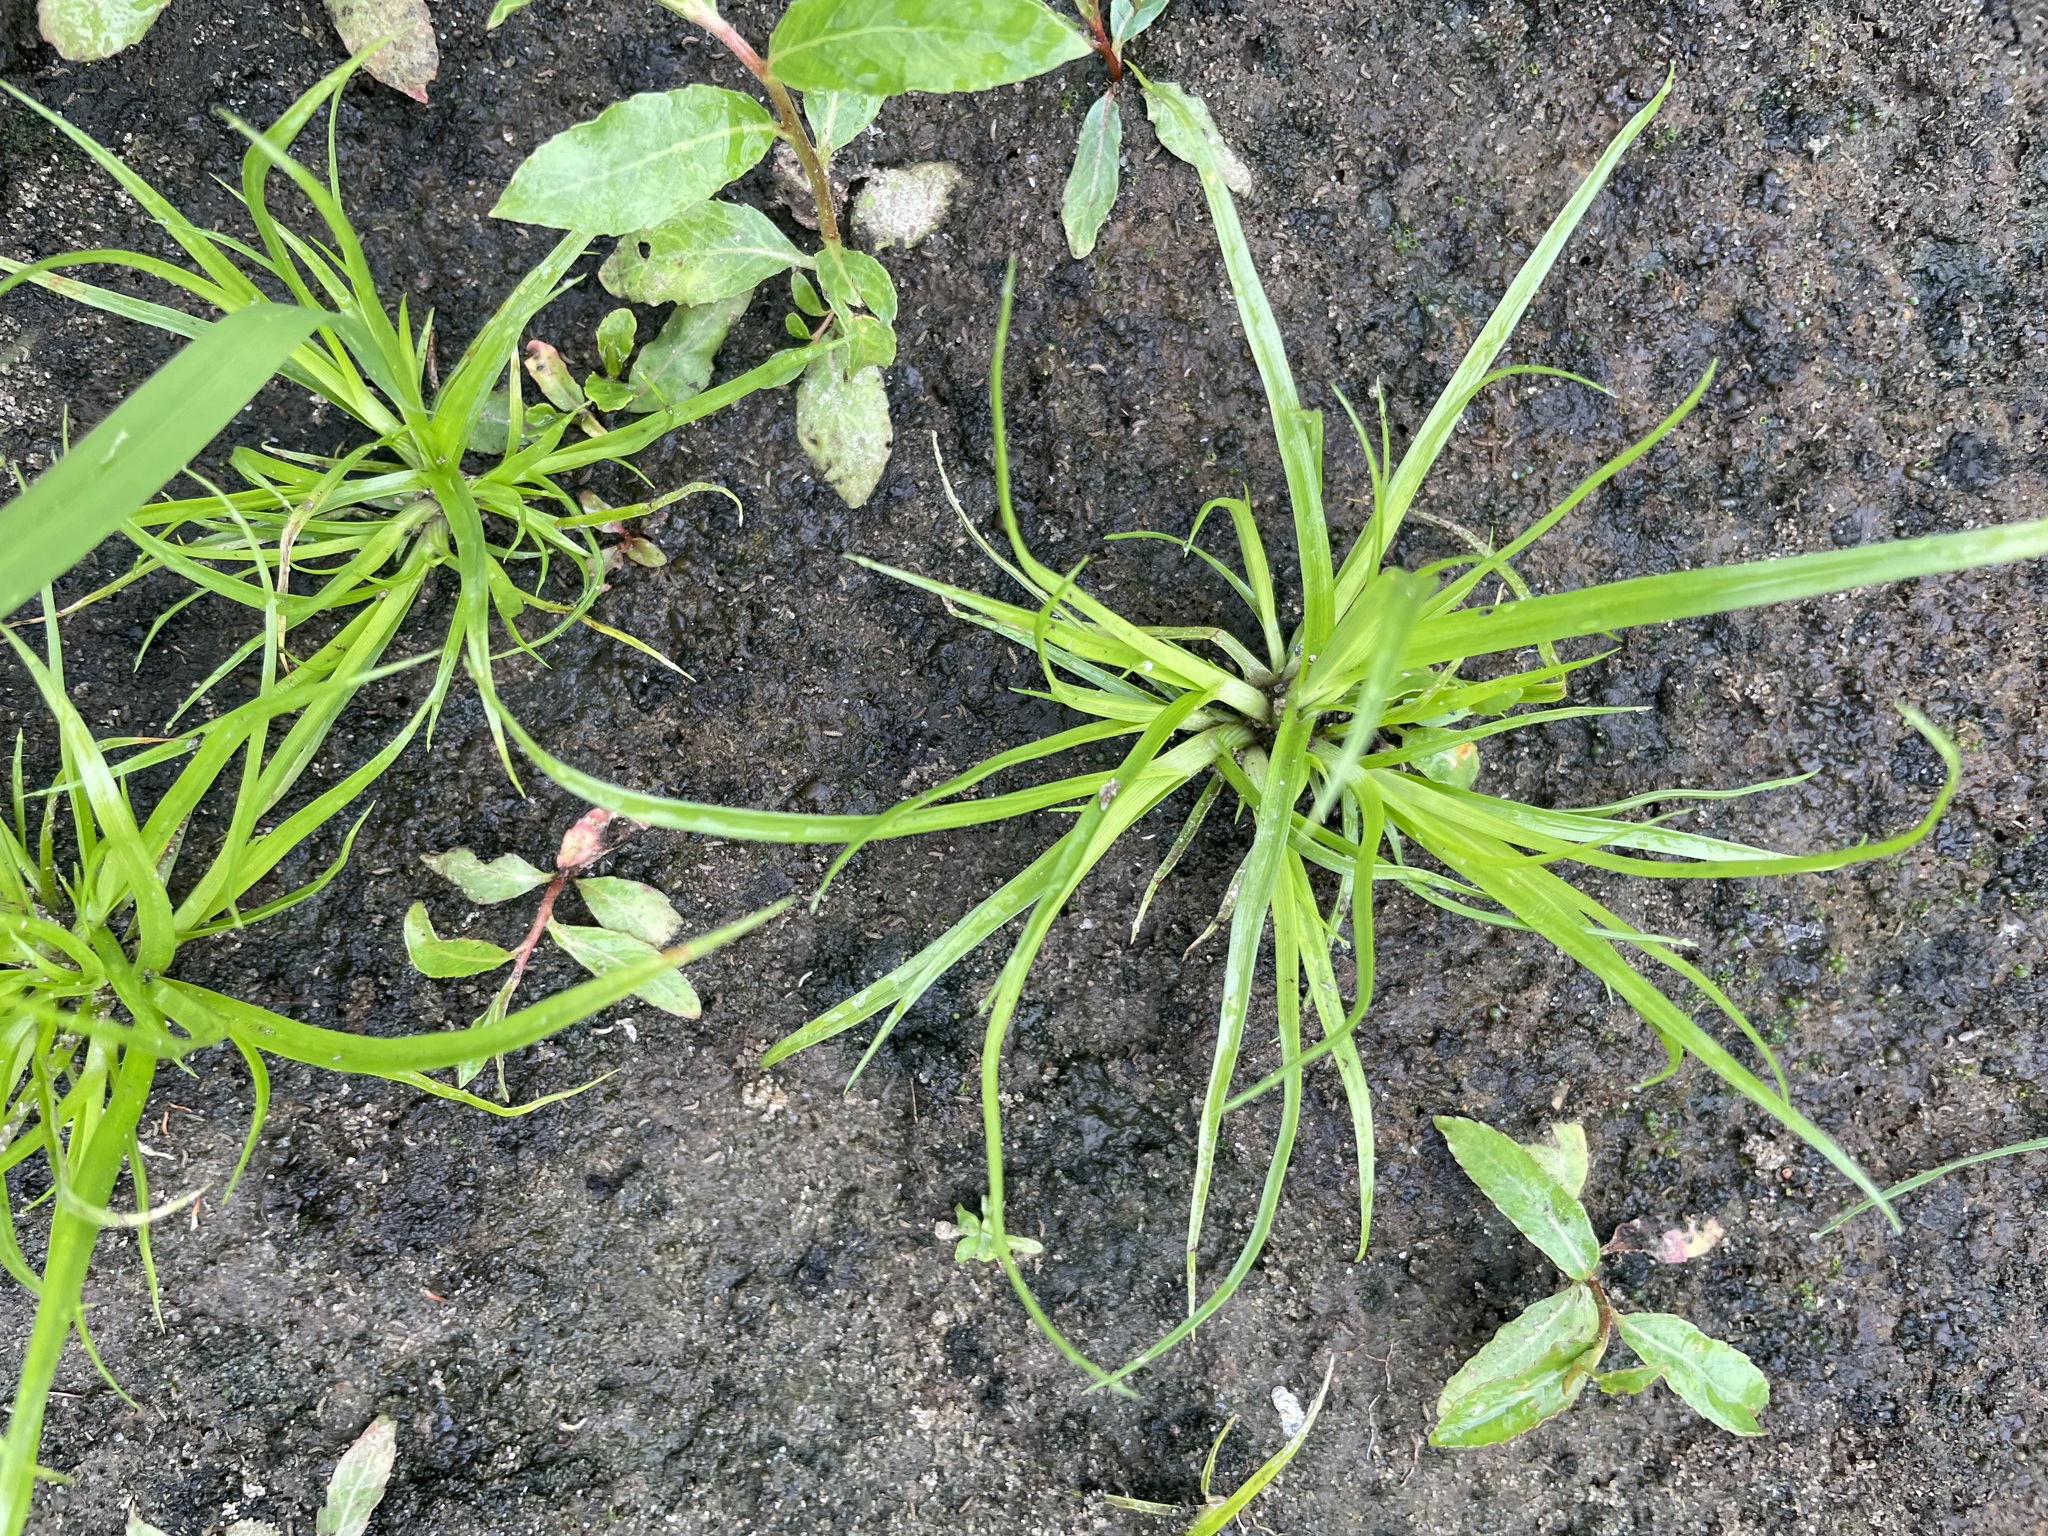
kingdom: Plantae
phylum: Tracheophyta
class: Liliopsida
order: Poales
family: Cyperaceae
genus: Cyperus
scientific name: Cyperus fuscus
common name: Brown galingale
